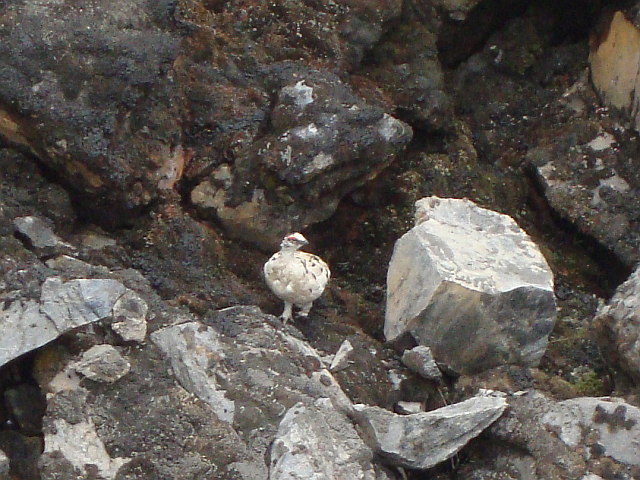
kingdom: Animalia
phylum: Chordata
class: Aves
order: Galliformes
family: Phasianidae
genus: Lagopus
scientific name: Lagopus muta
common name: Rock ptarmigan
